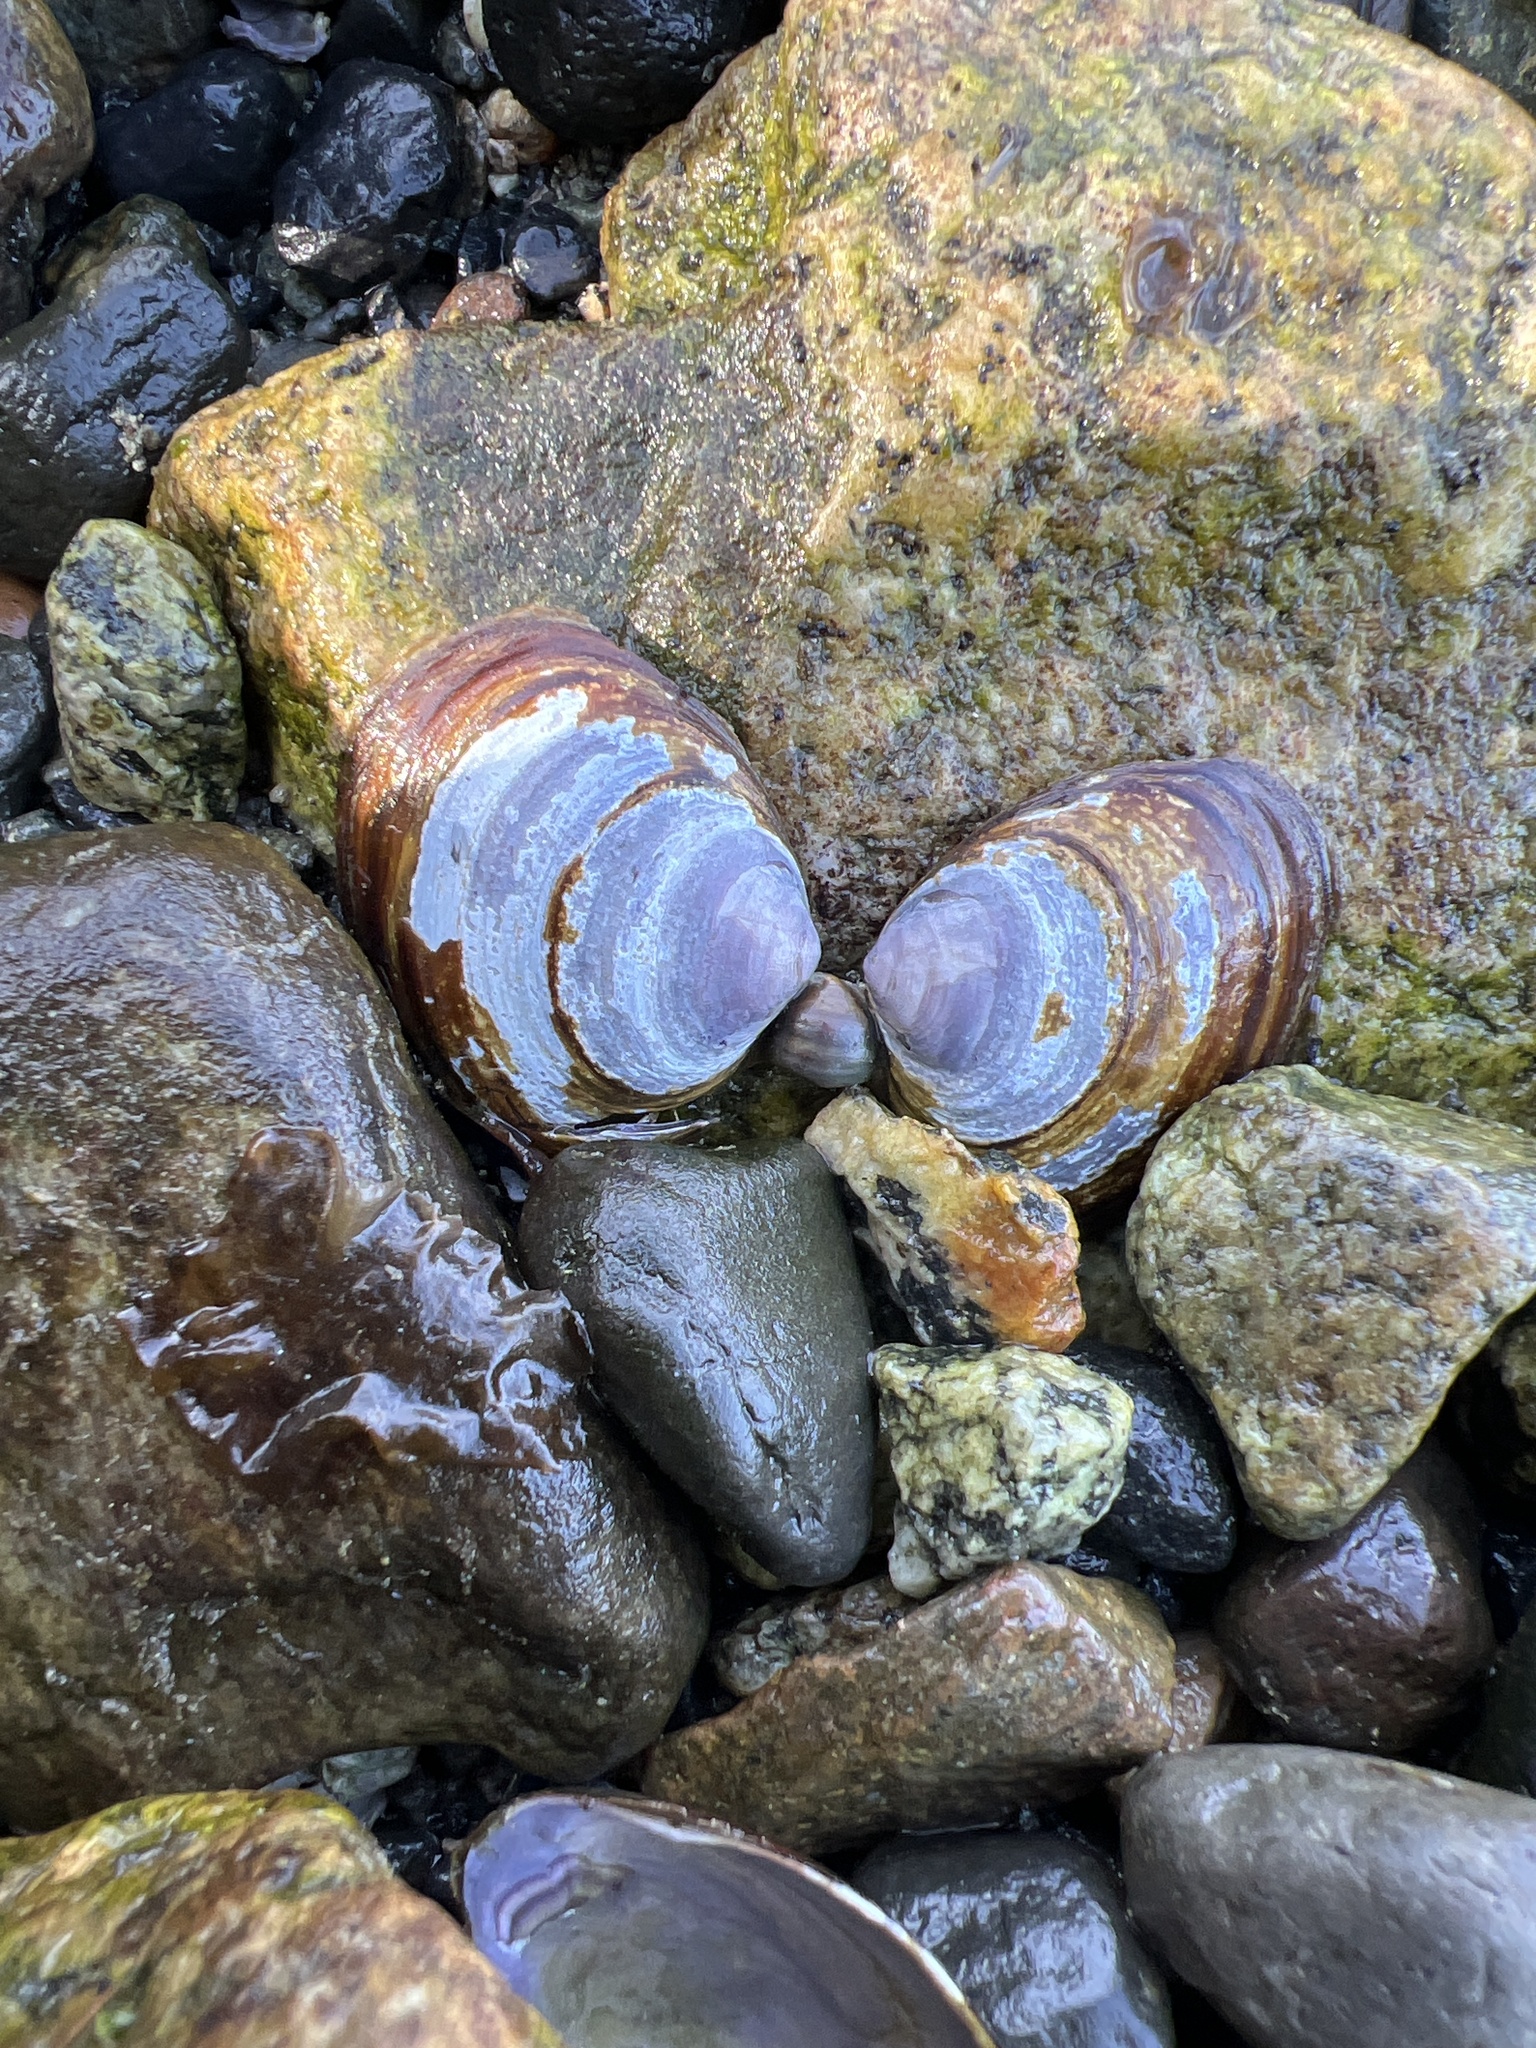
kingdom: Animalia
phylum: Mollusca
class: Bivalvia
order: Cardiida
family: Psammobiidae
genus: Nuttallia
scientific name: Nuttallia obscurata
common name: Purple mahogany-clam
